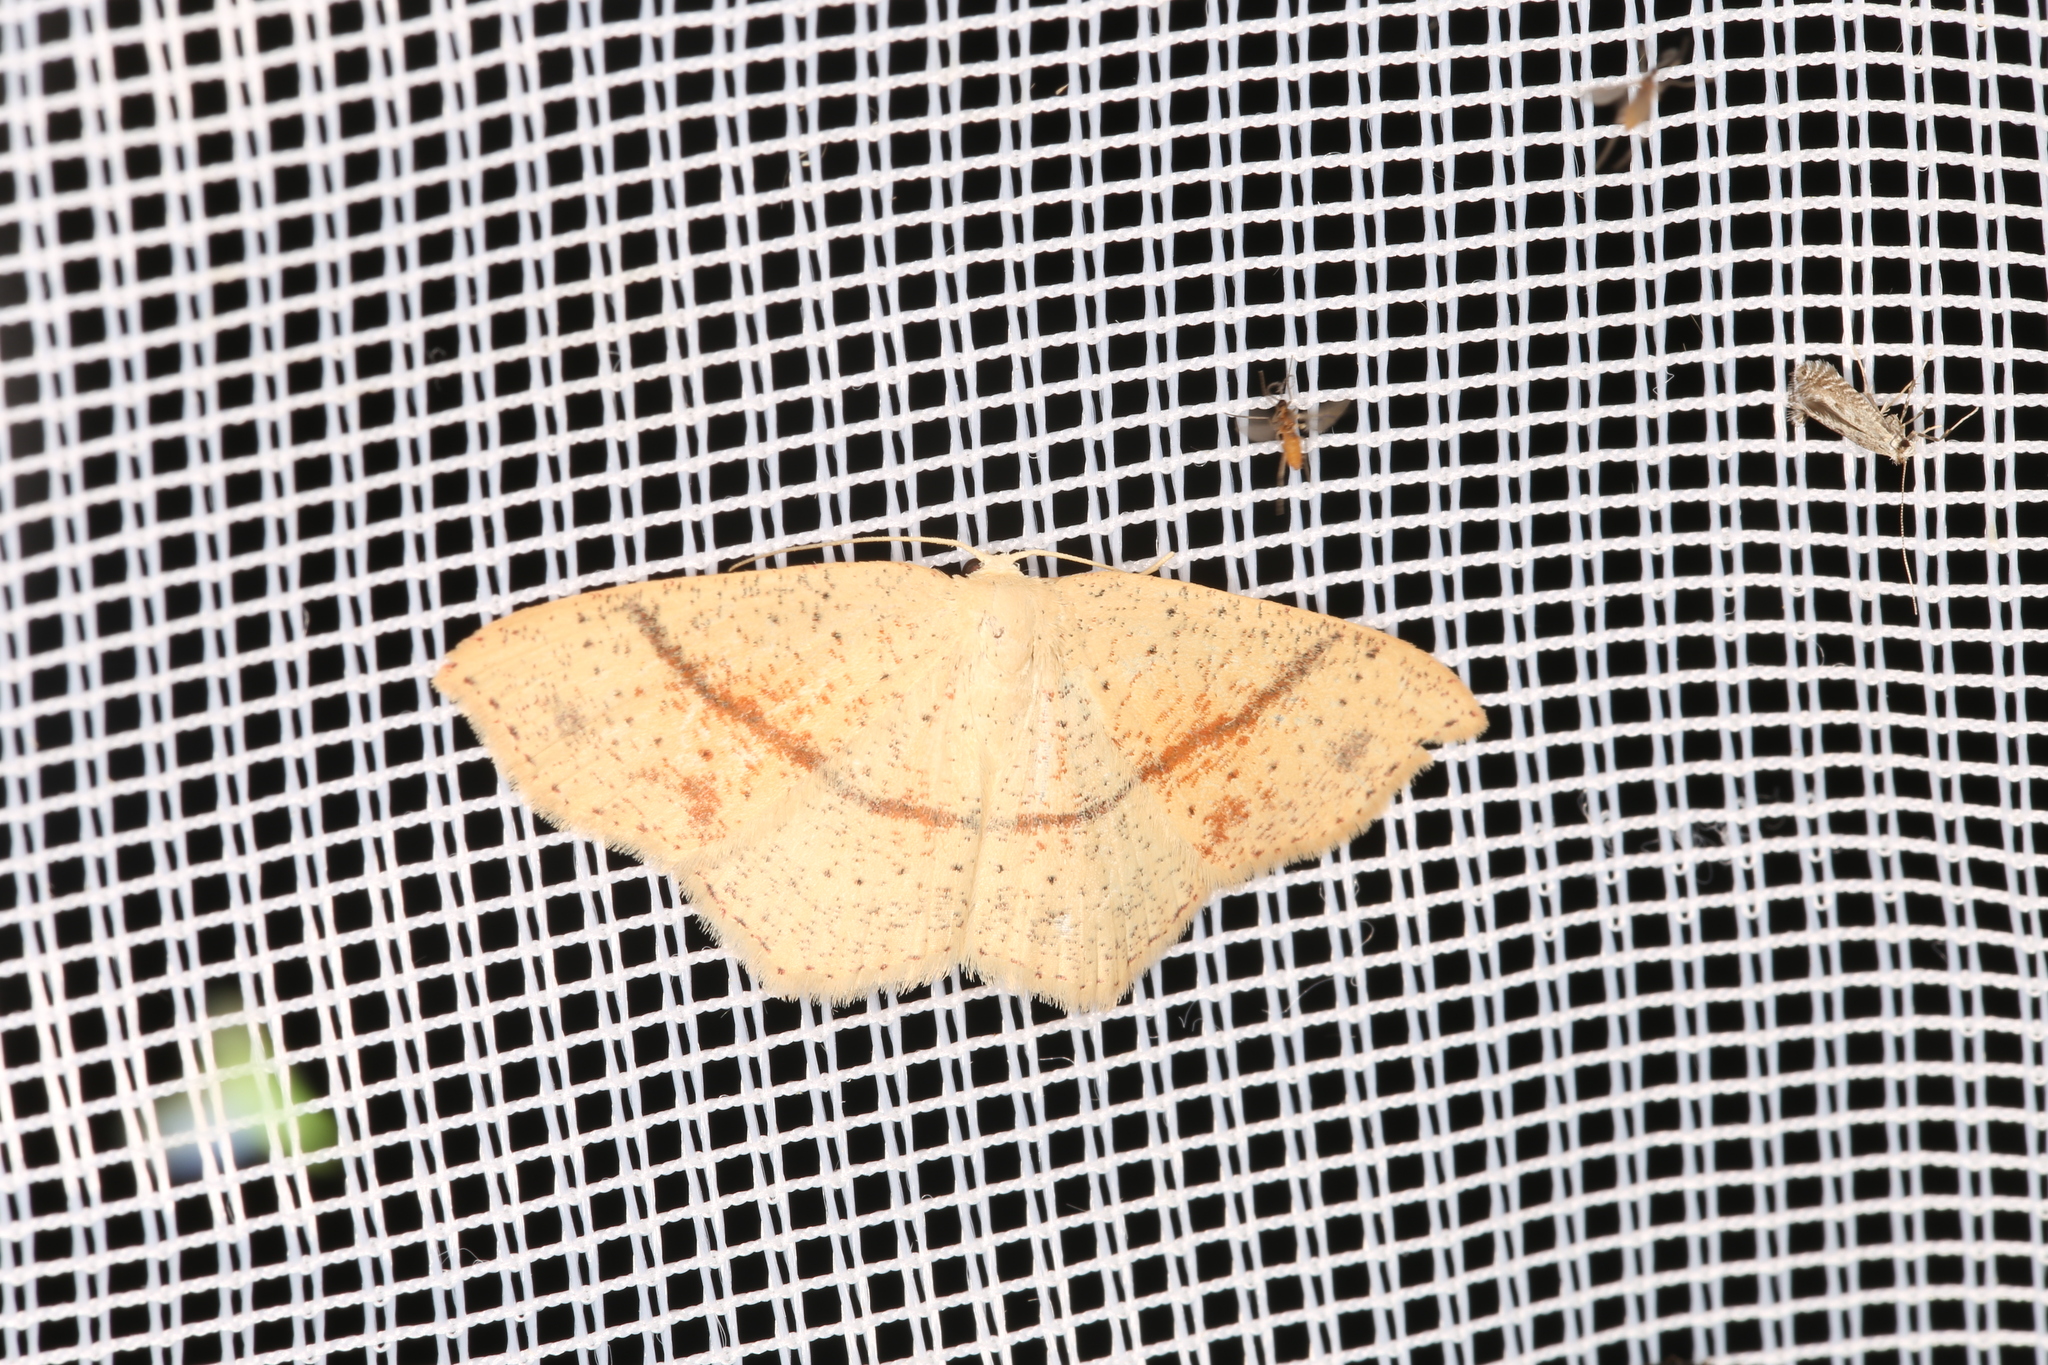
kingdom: Animalia
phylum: Arthropoda
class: Insecta
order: Lepidoptera
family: Geometridae
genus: Cyclophora
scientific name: Cyclophora punctaria
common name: Maiden's blush
